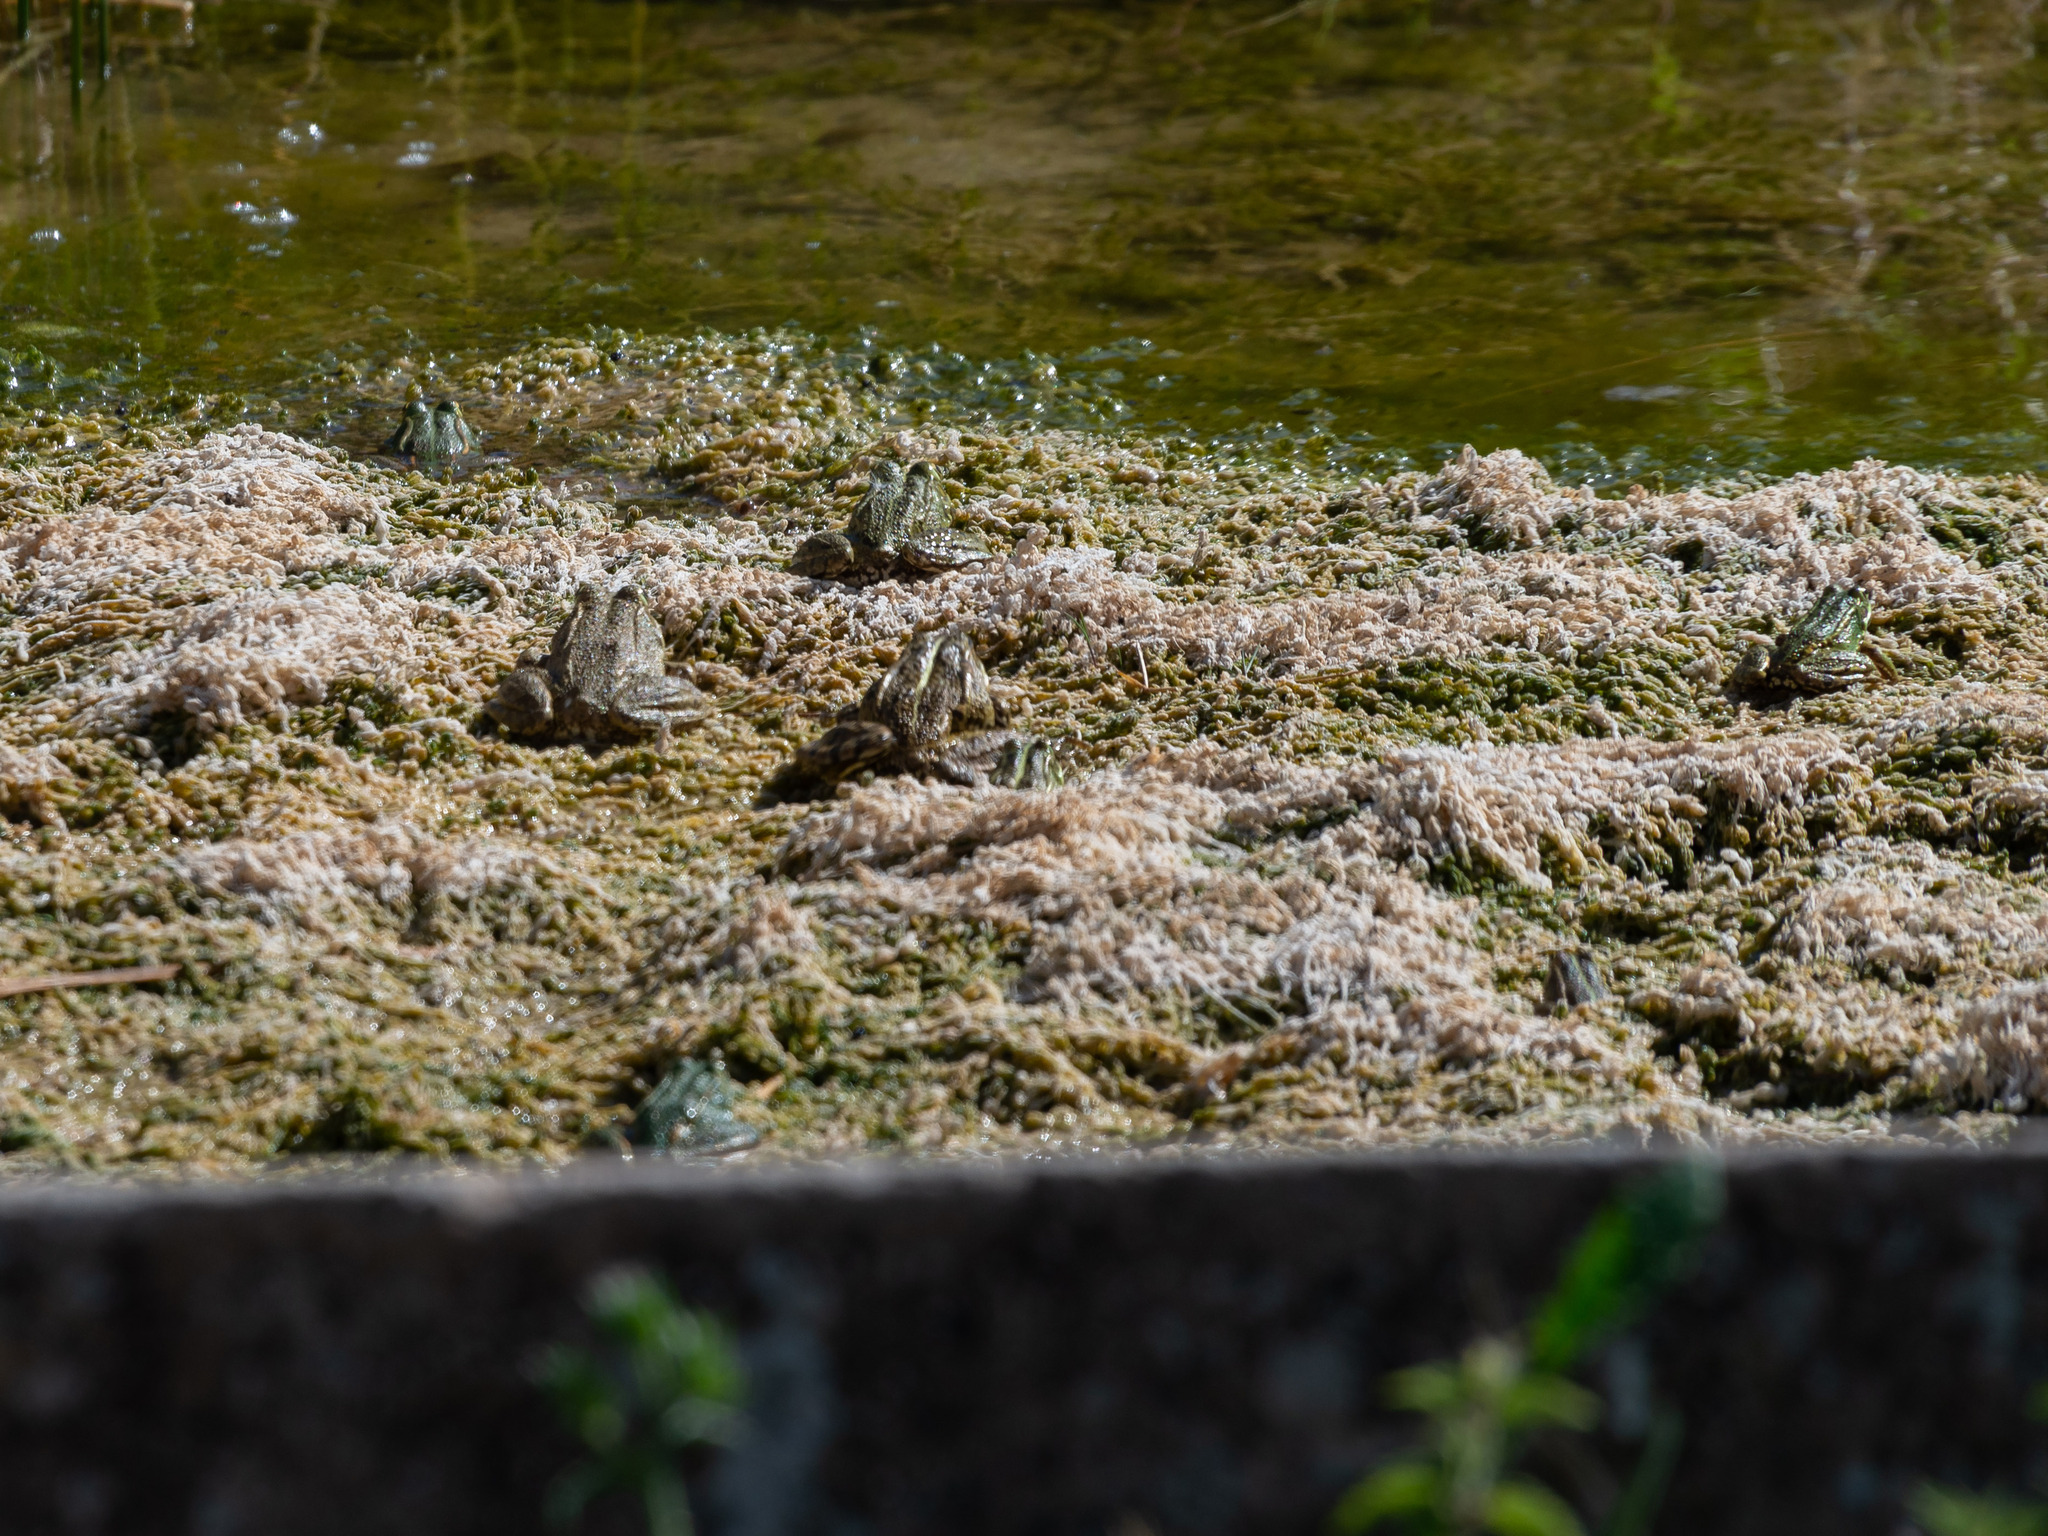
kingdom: Animalia
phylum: Chordata
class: Amphibia
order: Anura
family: Ranidae
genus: Pelophylax
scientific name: Pelophylax perezi
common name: Perez's frog
